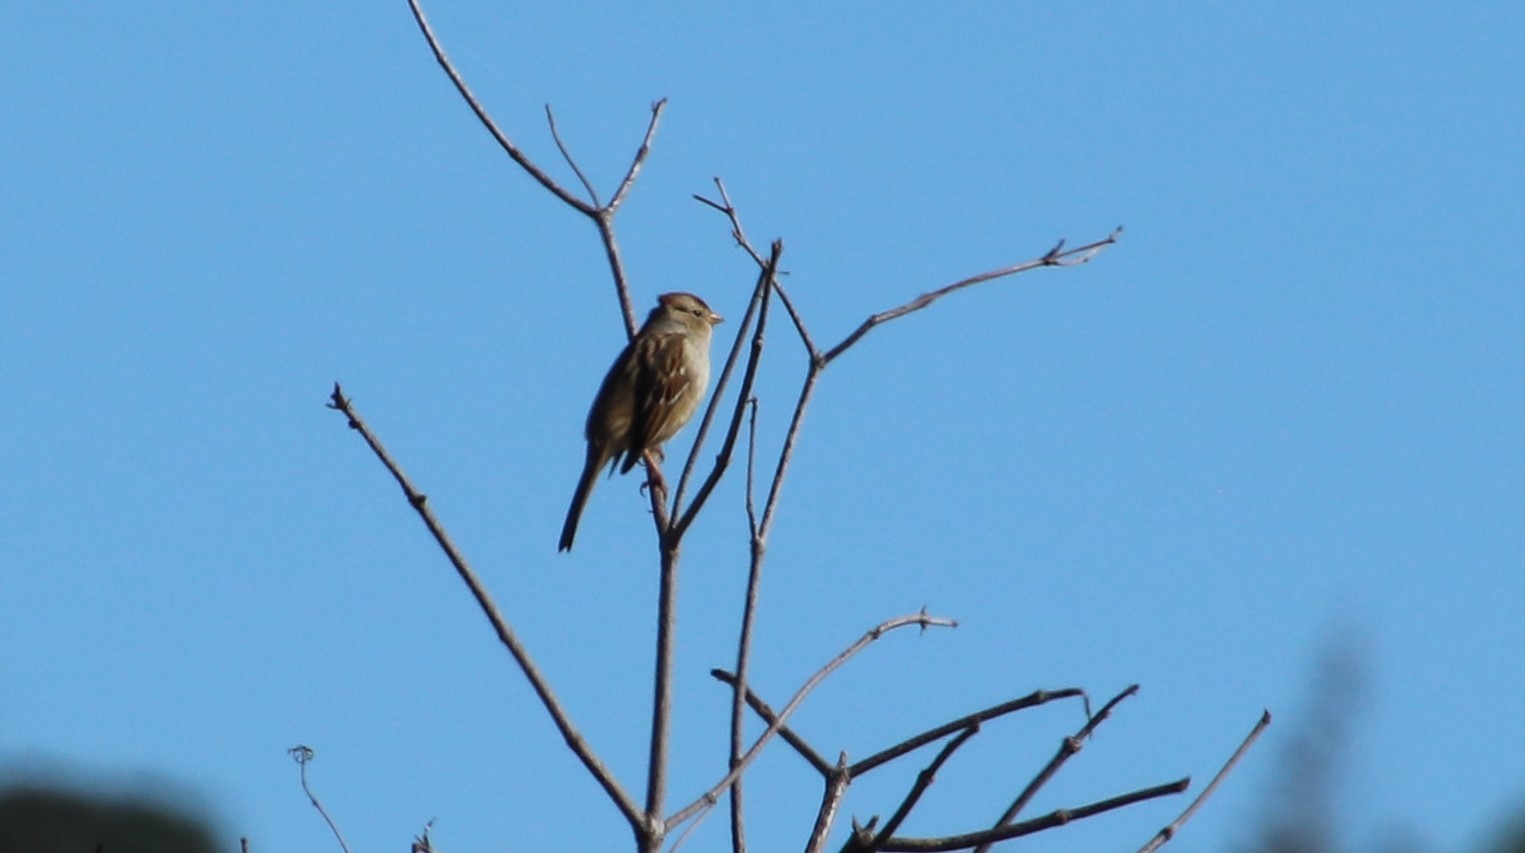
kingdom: Animalia
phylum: Chordata
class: Aves
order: Passeriformes
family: Passerellidae
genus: Zonotrichia
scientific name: Zonotrichia leucophrys
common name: White-crowned sparrow
